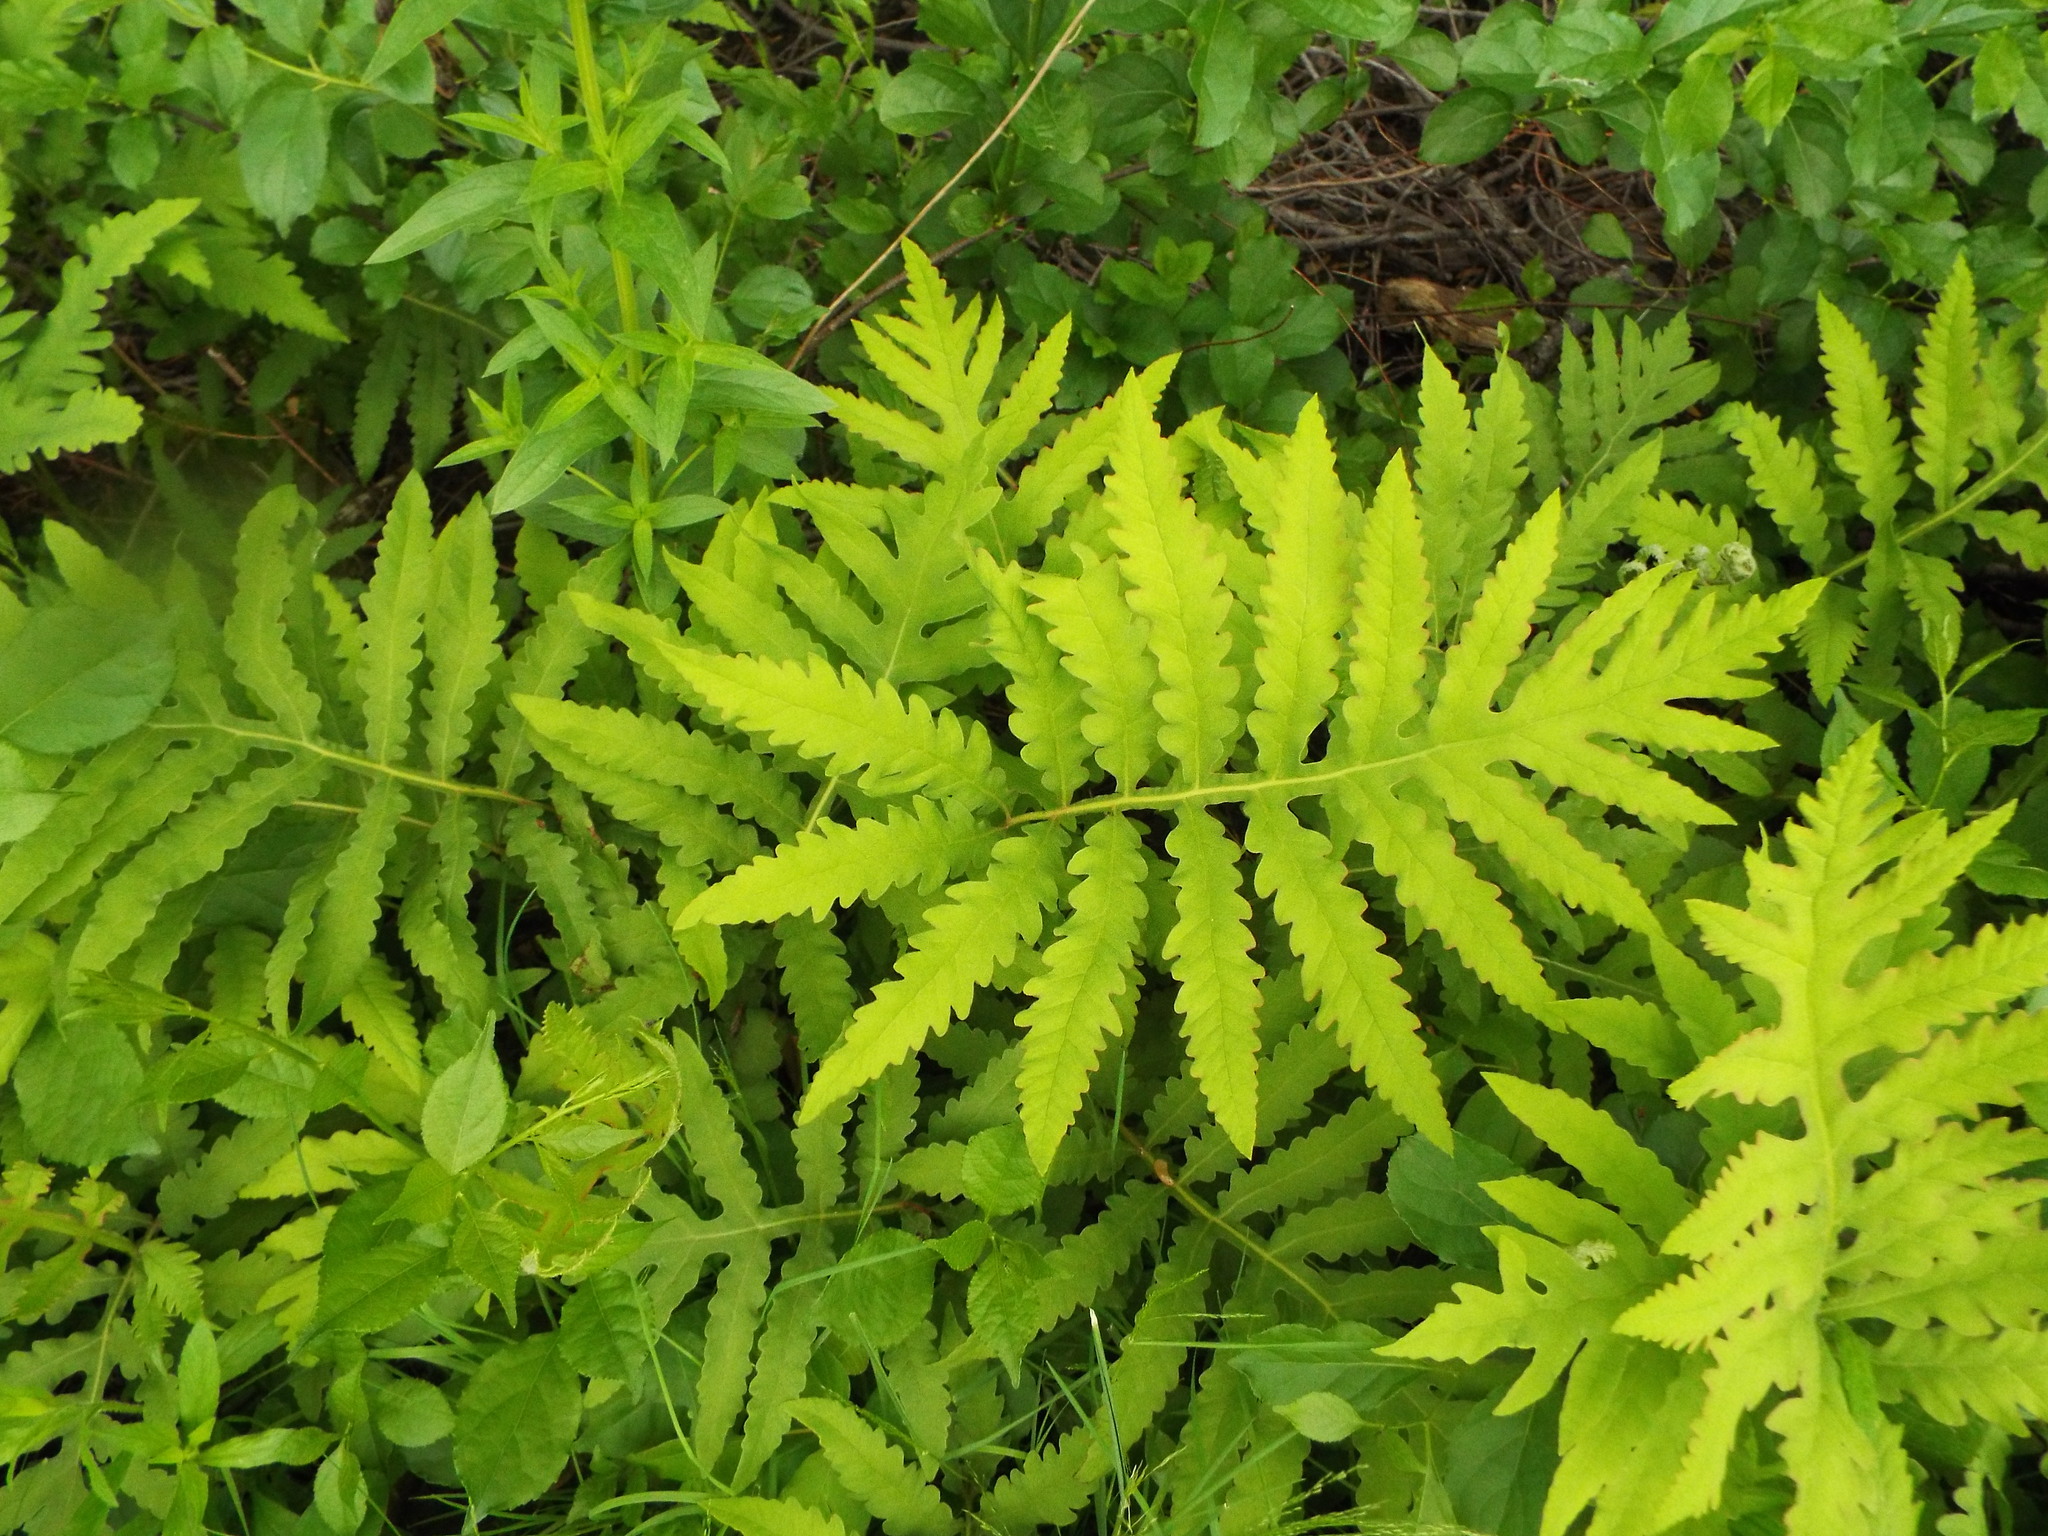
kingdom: Plantae
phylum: Tracheophyta
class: Polypodiopsida
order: Polypodiales
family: Onocleaceae
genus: Onoclea
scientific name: Onoclea sensibilis
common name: Sensitive fern
